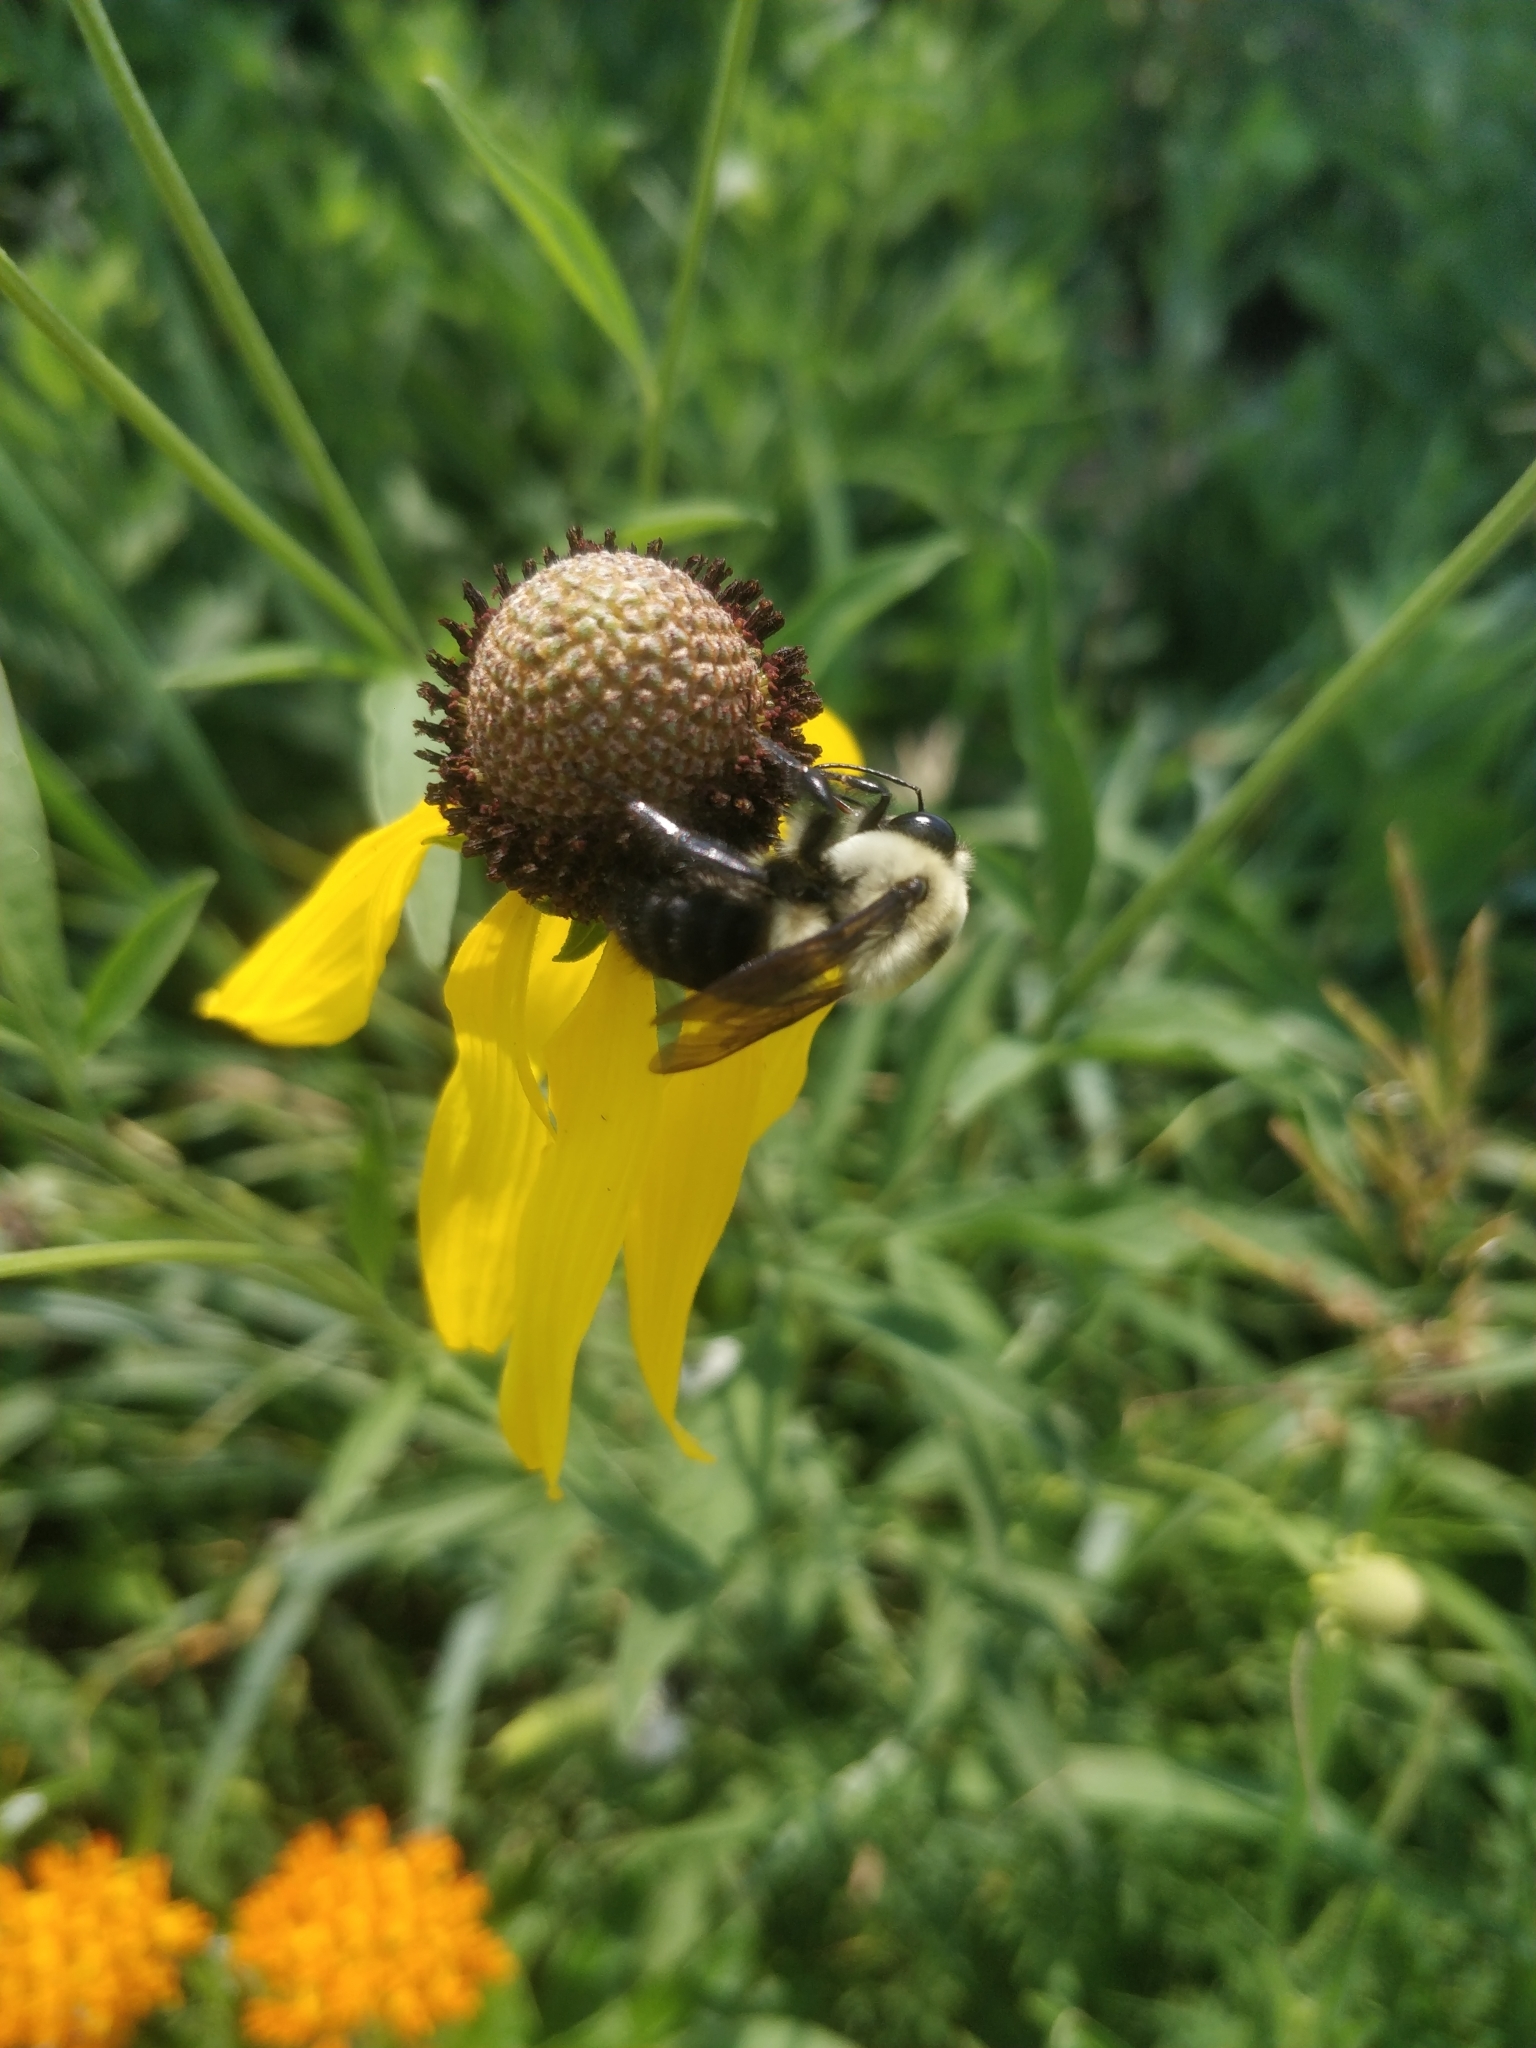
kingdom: Animalia
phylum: Arthropoda
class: Insecta
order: Hymenoptera
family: Apidae
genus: Bombus
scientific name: Bombus griseocollis
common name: Brown-belted bumble bee
